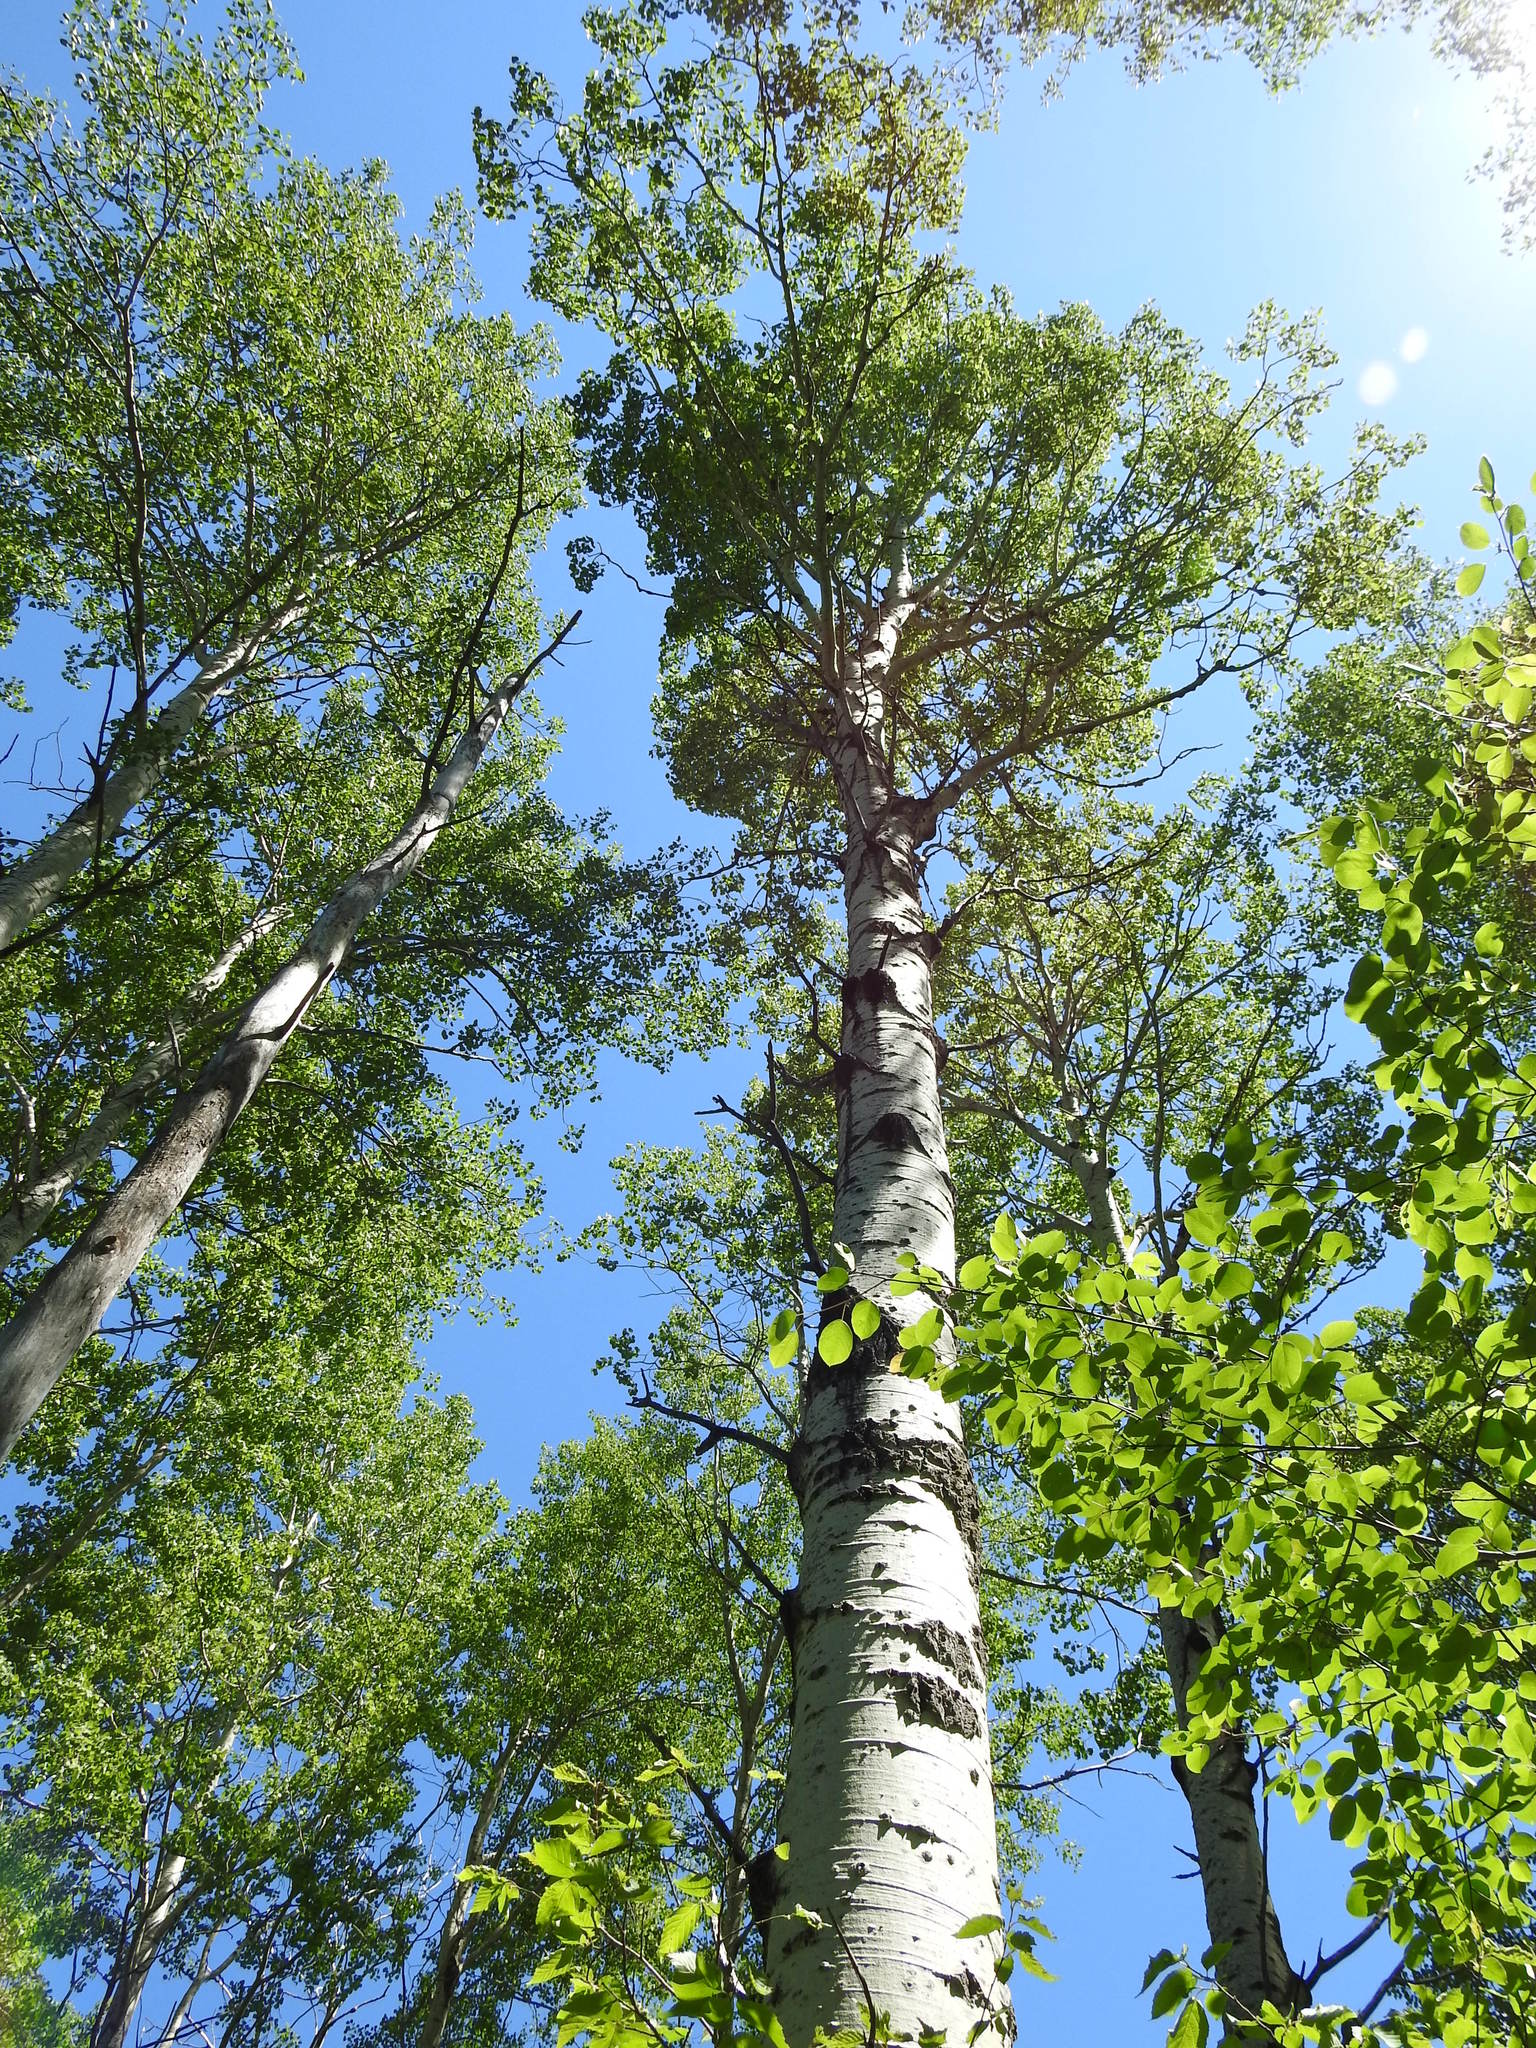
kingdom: Plantae
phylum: Tracheophyta
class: Magnoliopsida
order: Malpighiales
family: Salicaceae
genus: Populus
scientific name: Populus tremuloides
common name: Quaking aspen
